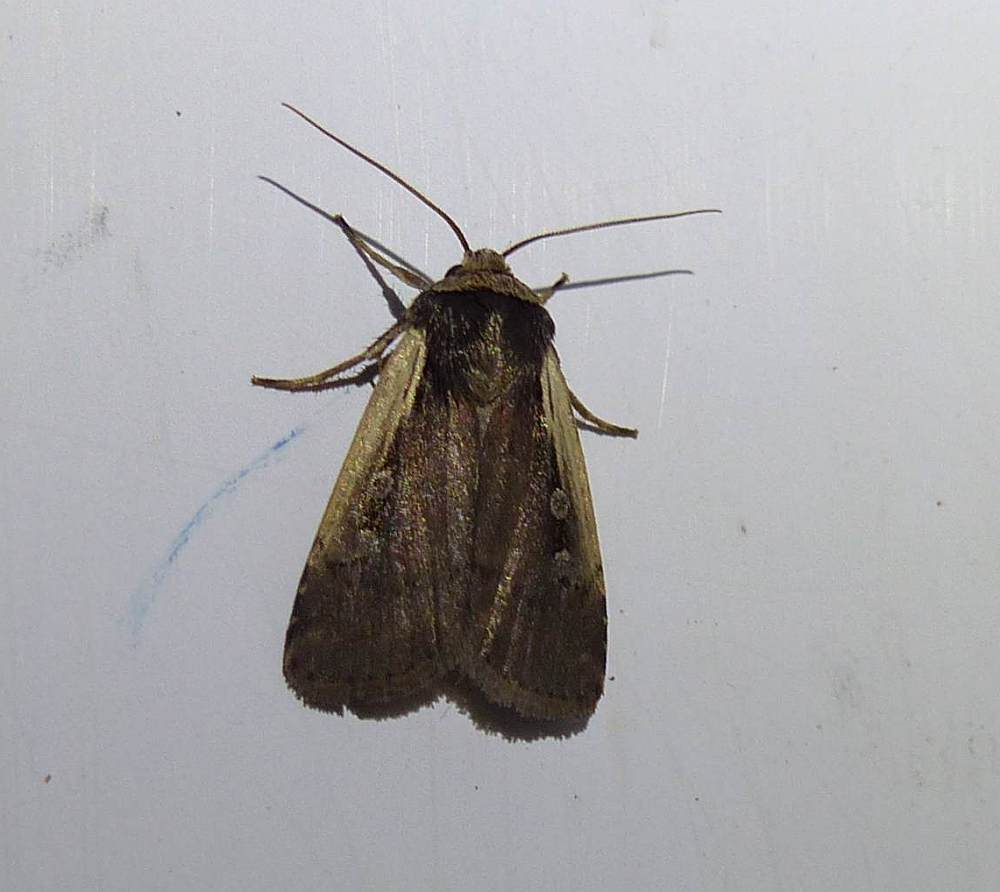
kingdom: Animalia
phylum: Arthropoda
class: Insecta
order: Lepidoptera
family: Noctuidae
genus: Ochropleura
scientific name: Ochropleura implecta
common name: Flame-shouldered dart
